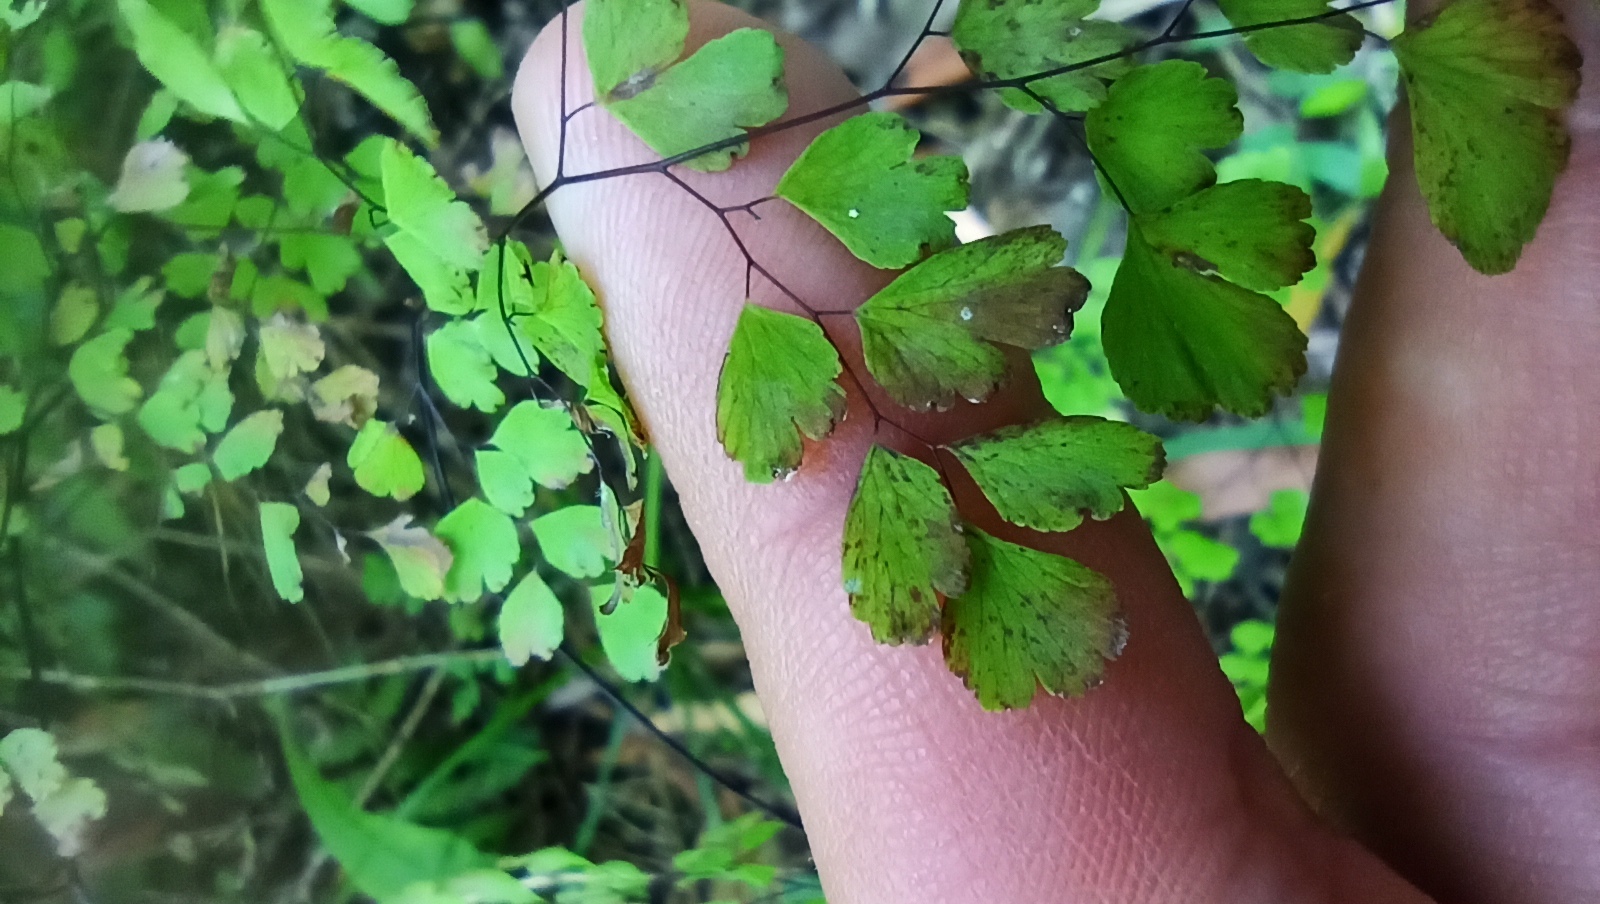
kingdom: Plantae
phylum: Tracheophyta
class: Polypodiopsida
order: Polypodiales
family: Pteridaceae
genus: Adiantum
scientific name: Adiantum raddianum
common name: Delta maidenhair fern
